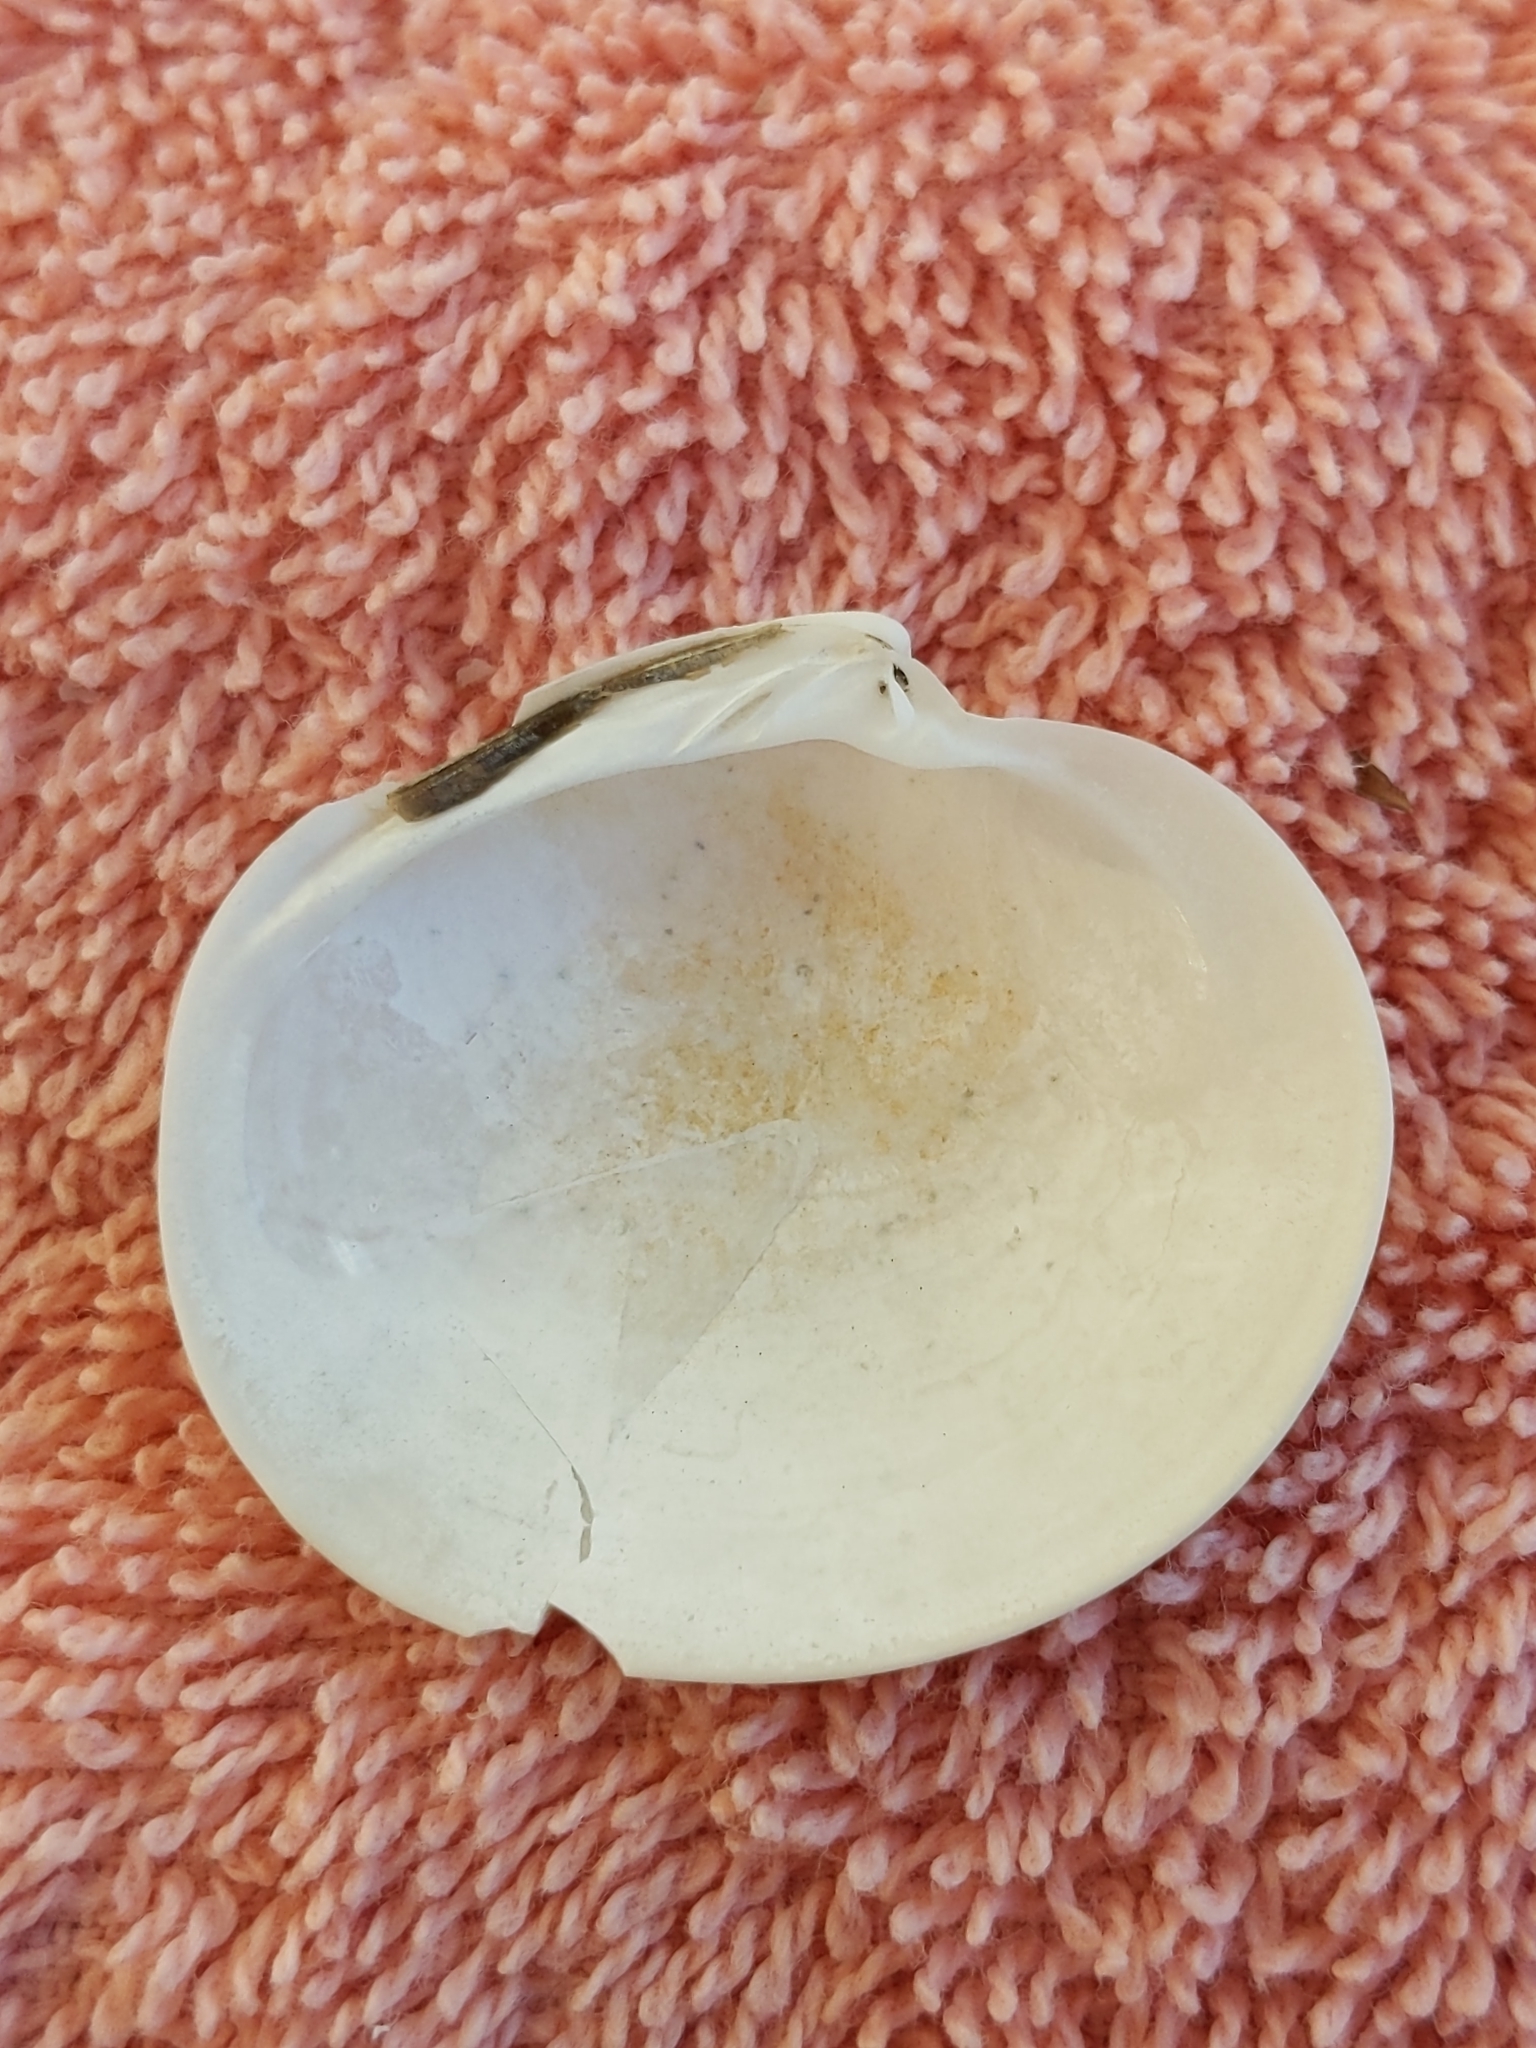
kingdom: Animalia
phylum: Mollusca
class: Bivalvia
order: Venerida
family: Veneridae
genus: Dosinia
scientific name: Dosinia concentrica
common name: Elegant dosinia
